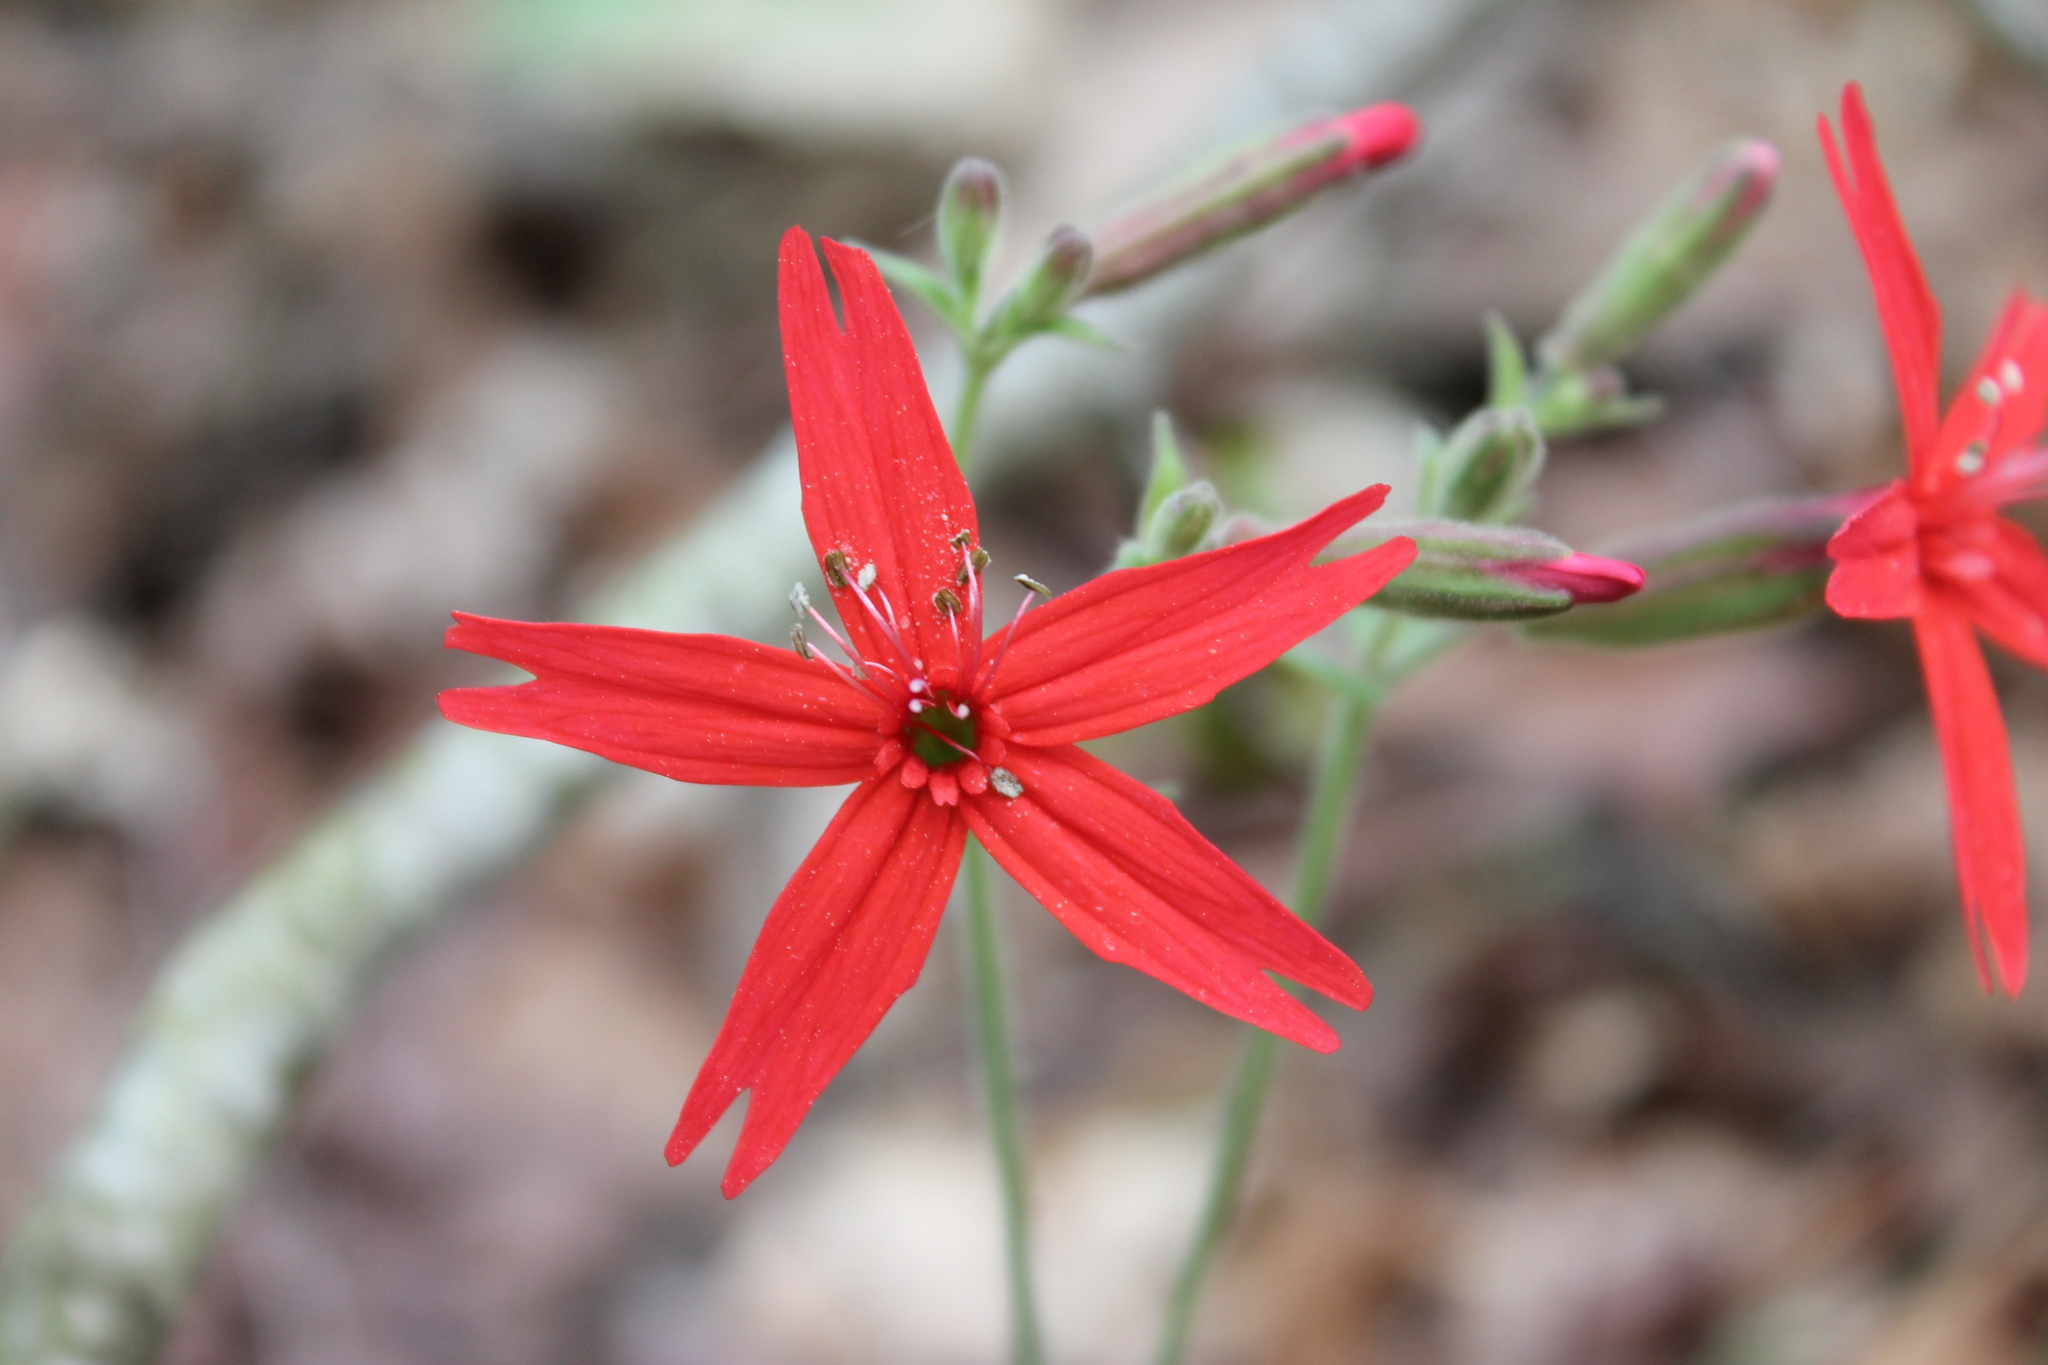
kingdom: Plantae
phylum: Tracheophyta
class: Magnoliopsida
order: Caryophyllales
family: Caryophyllaceae
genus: Silene
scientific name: Silene virginica
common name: Fire-pink
